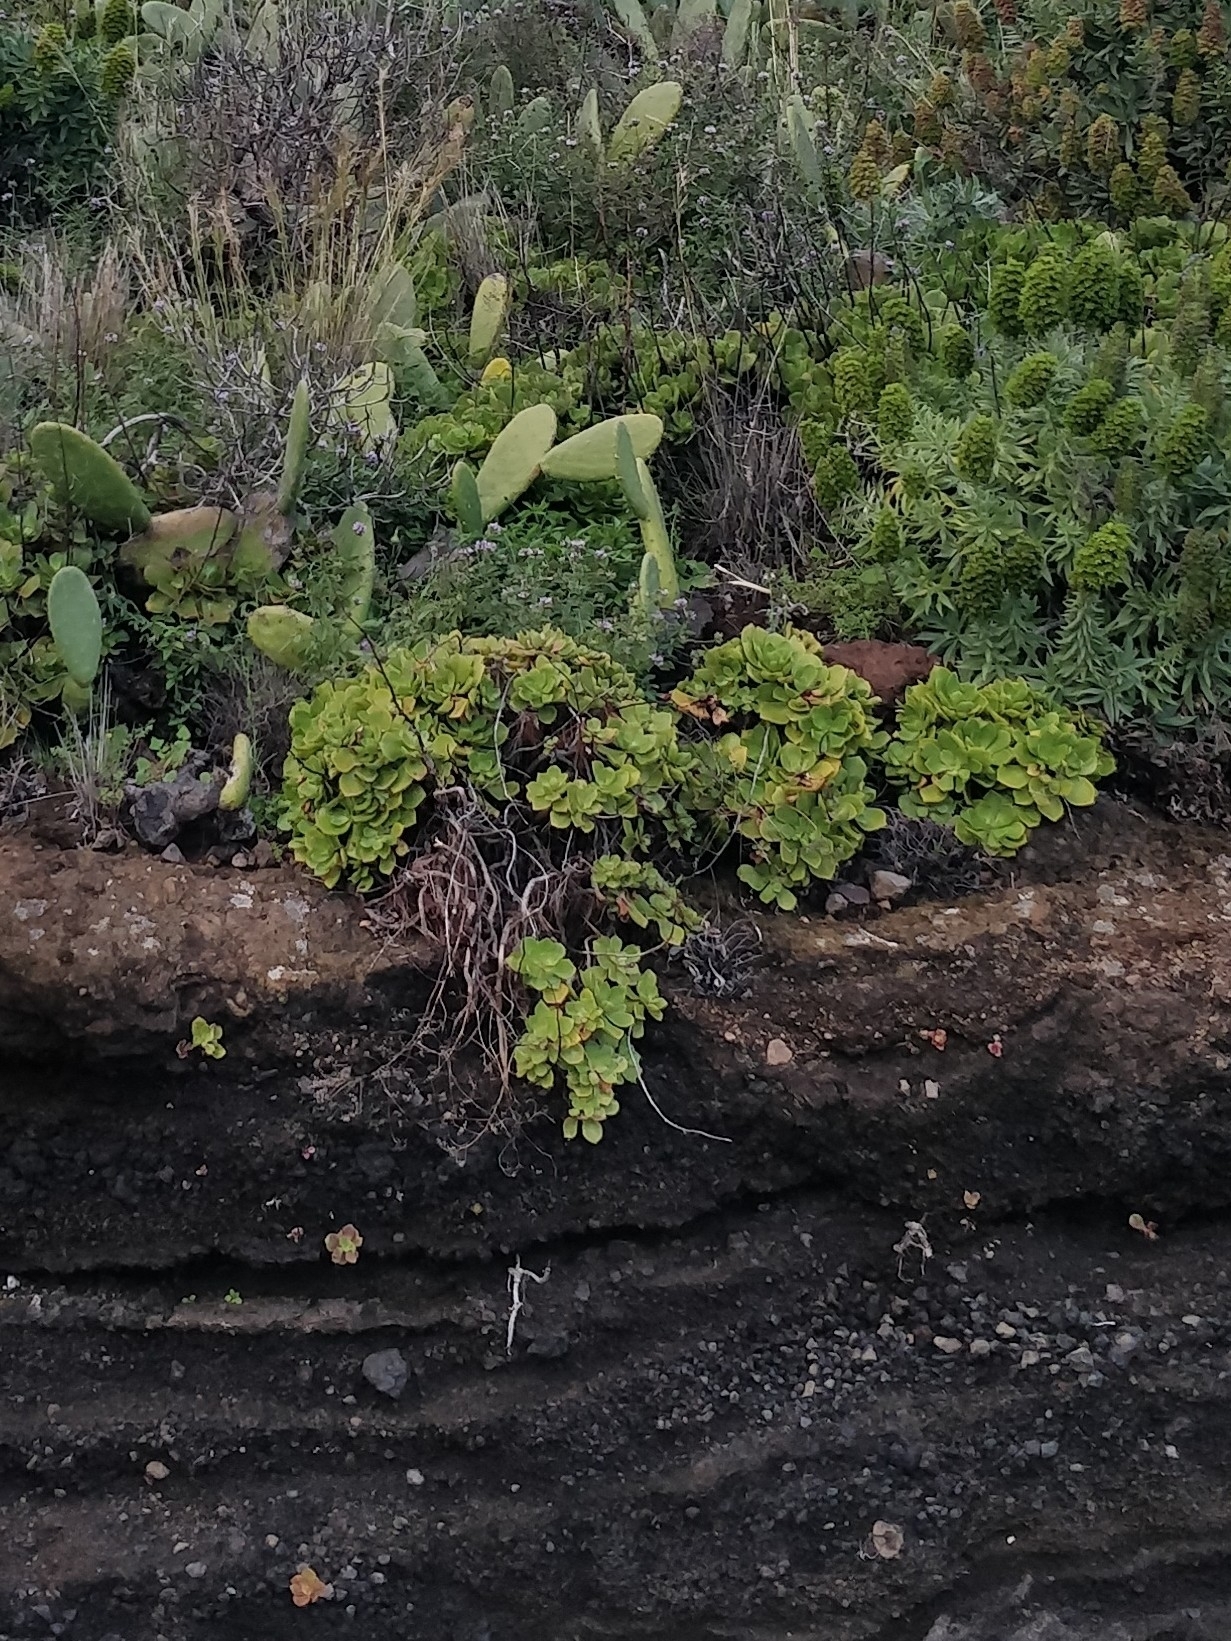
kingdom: Plantae
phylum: Tracheophyta
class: Magnoliopsida
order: Saxifragales
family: Crassulaceae
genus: Aeonium
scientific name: Aeonium glutinosum
